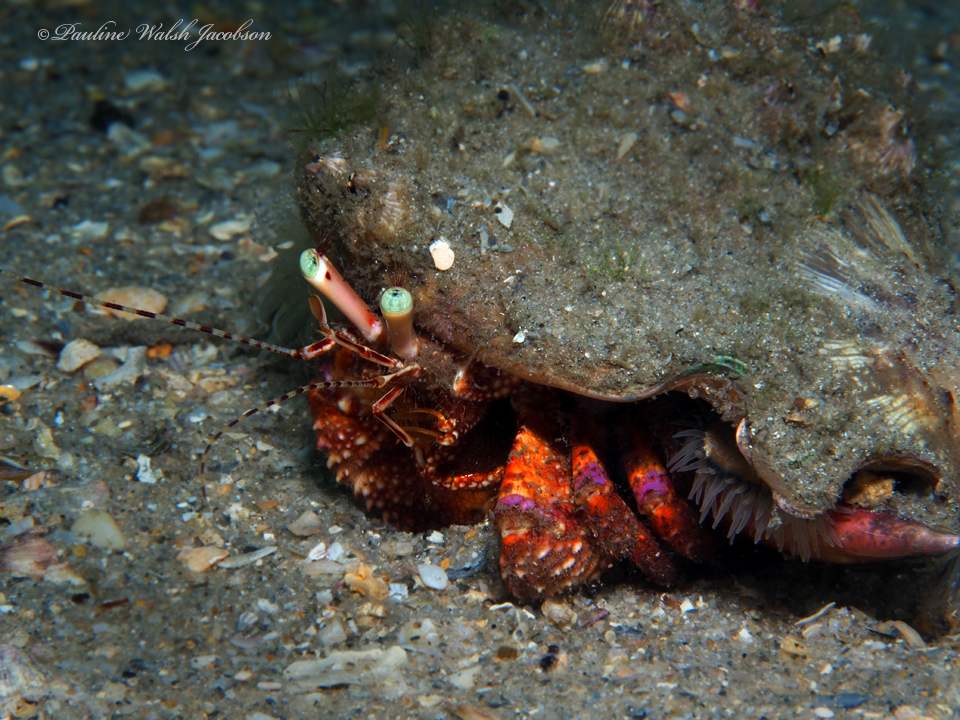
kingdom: Animalia
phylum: Arthropoda
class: Malacostraca
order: Decapoda
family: Diogenidae
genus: Petrochirus
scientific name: Petrochirus diogenes
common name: Giant hermit crab
